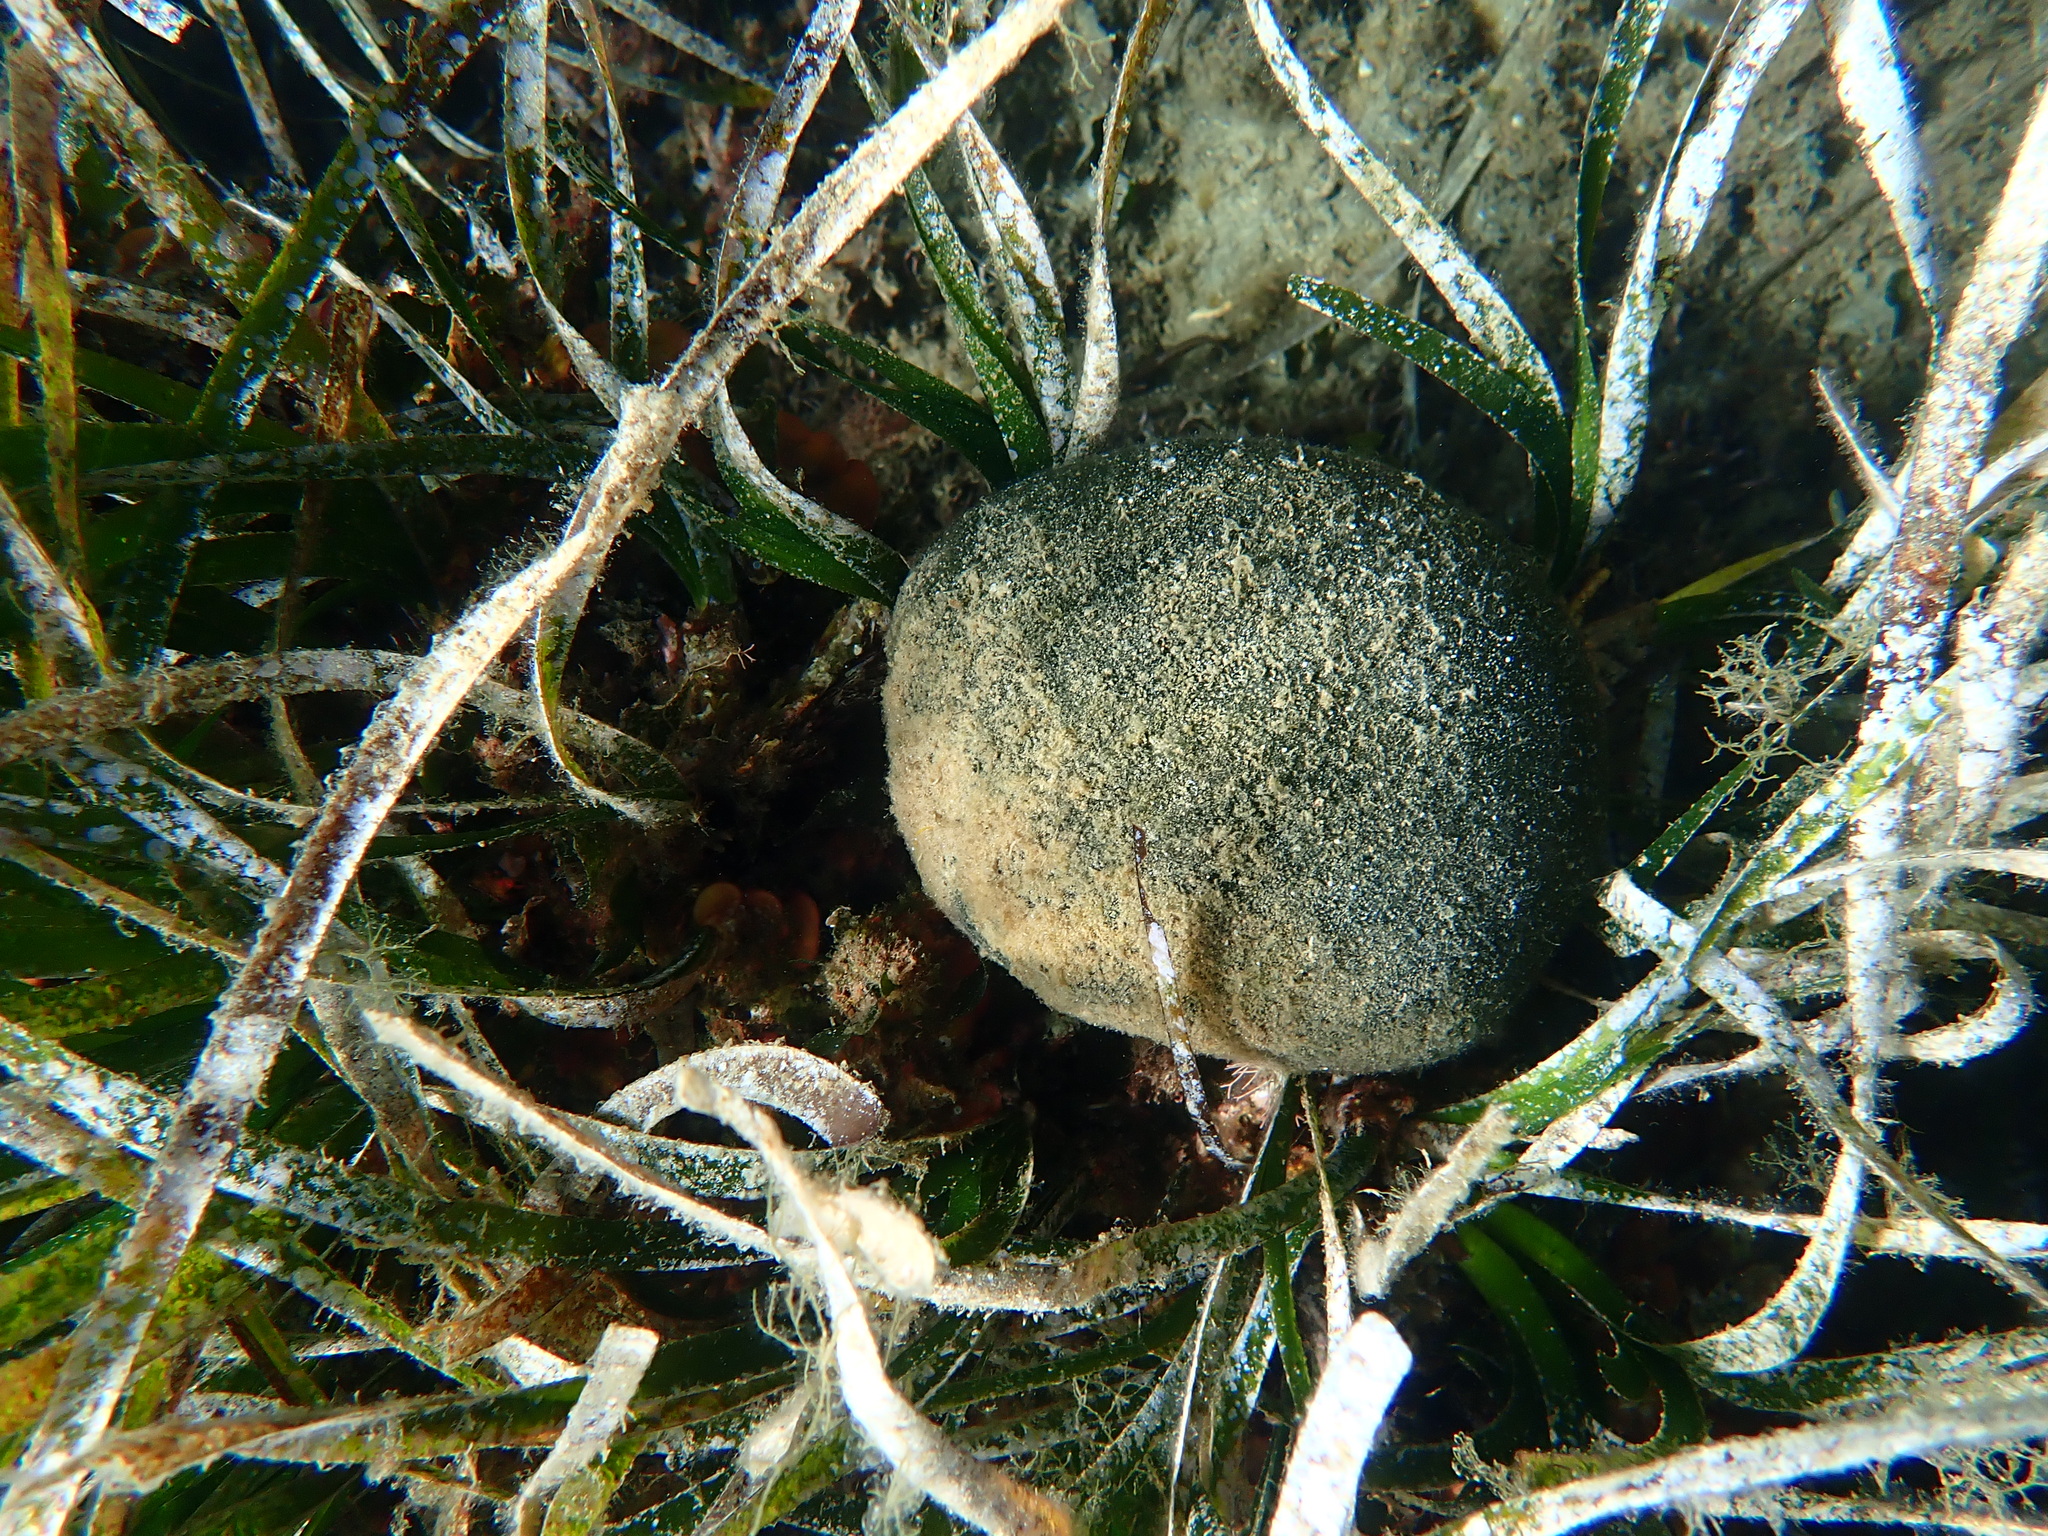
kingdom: Plantae
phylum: Chlorophyta
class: Ulvophyceae
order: Bryopsidales
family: Codiaceae
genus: Codium
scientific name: Codium bursa
